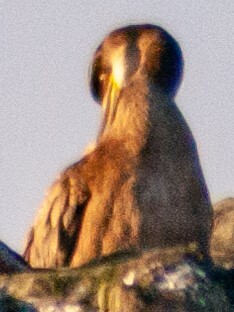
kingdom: Animalia
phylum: Chordata
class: Aves
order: Suliformes
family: Phalacrocoracidae
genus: Phalacrocorax
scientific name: Phalacrocorax aristotelis
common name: European shag
